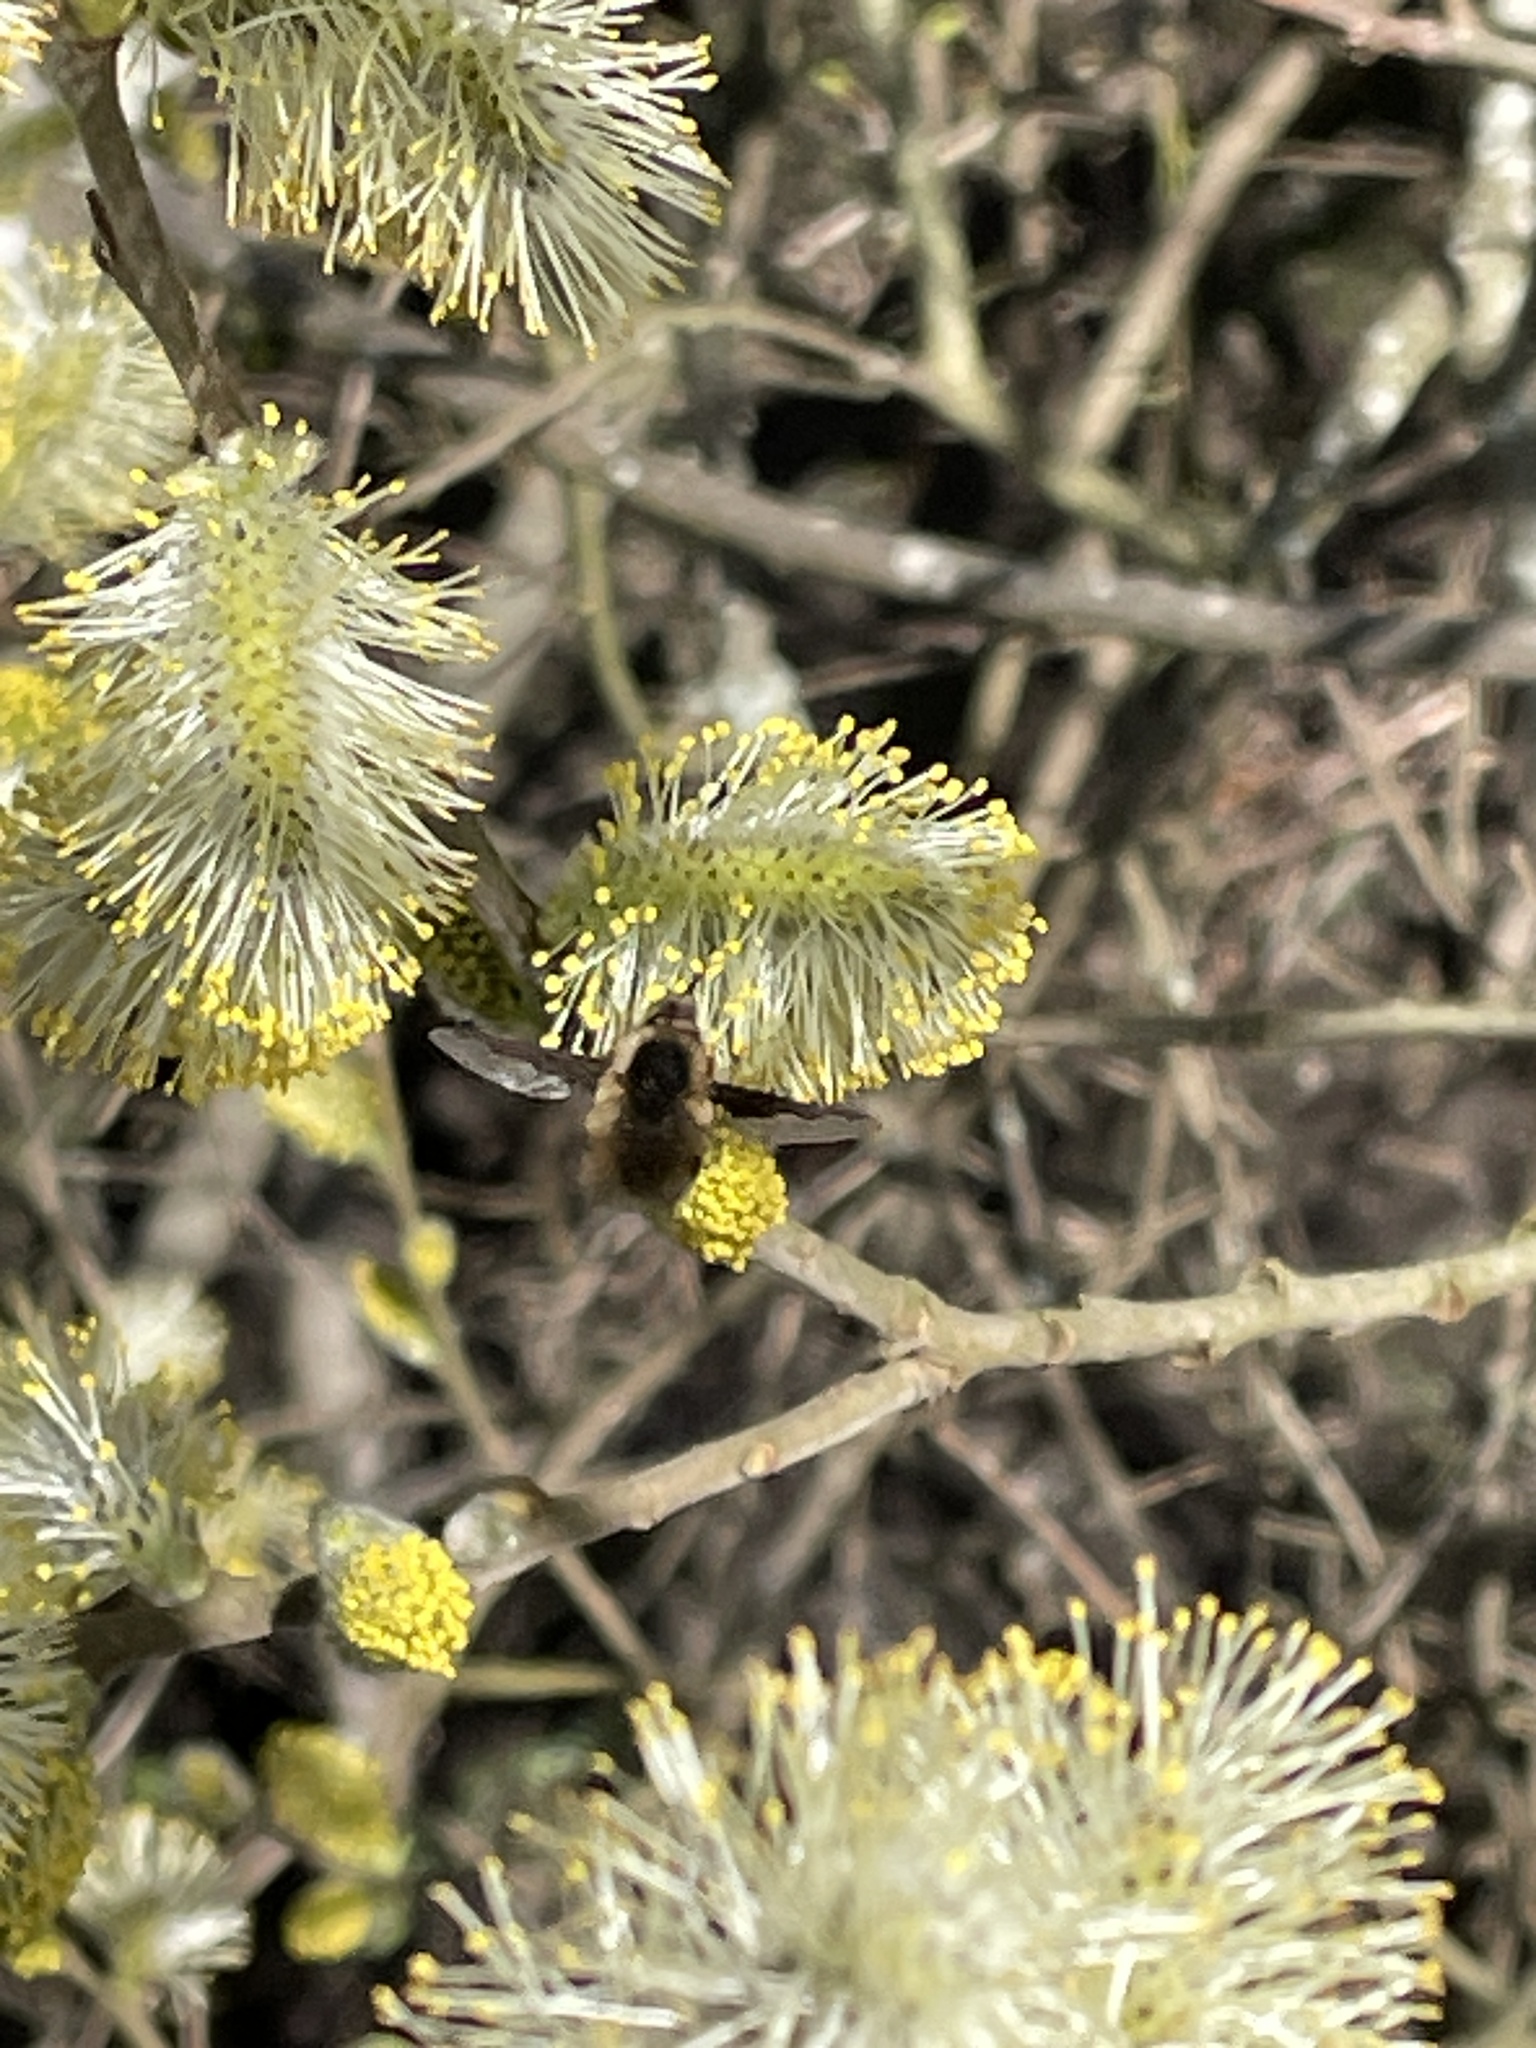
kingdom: Animalia
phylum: Arthropoda
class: Insecta
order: Diptera
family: Bombyliidae
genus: Bombylius
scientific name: Bombylius major
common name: Bee fly
